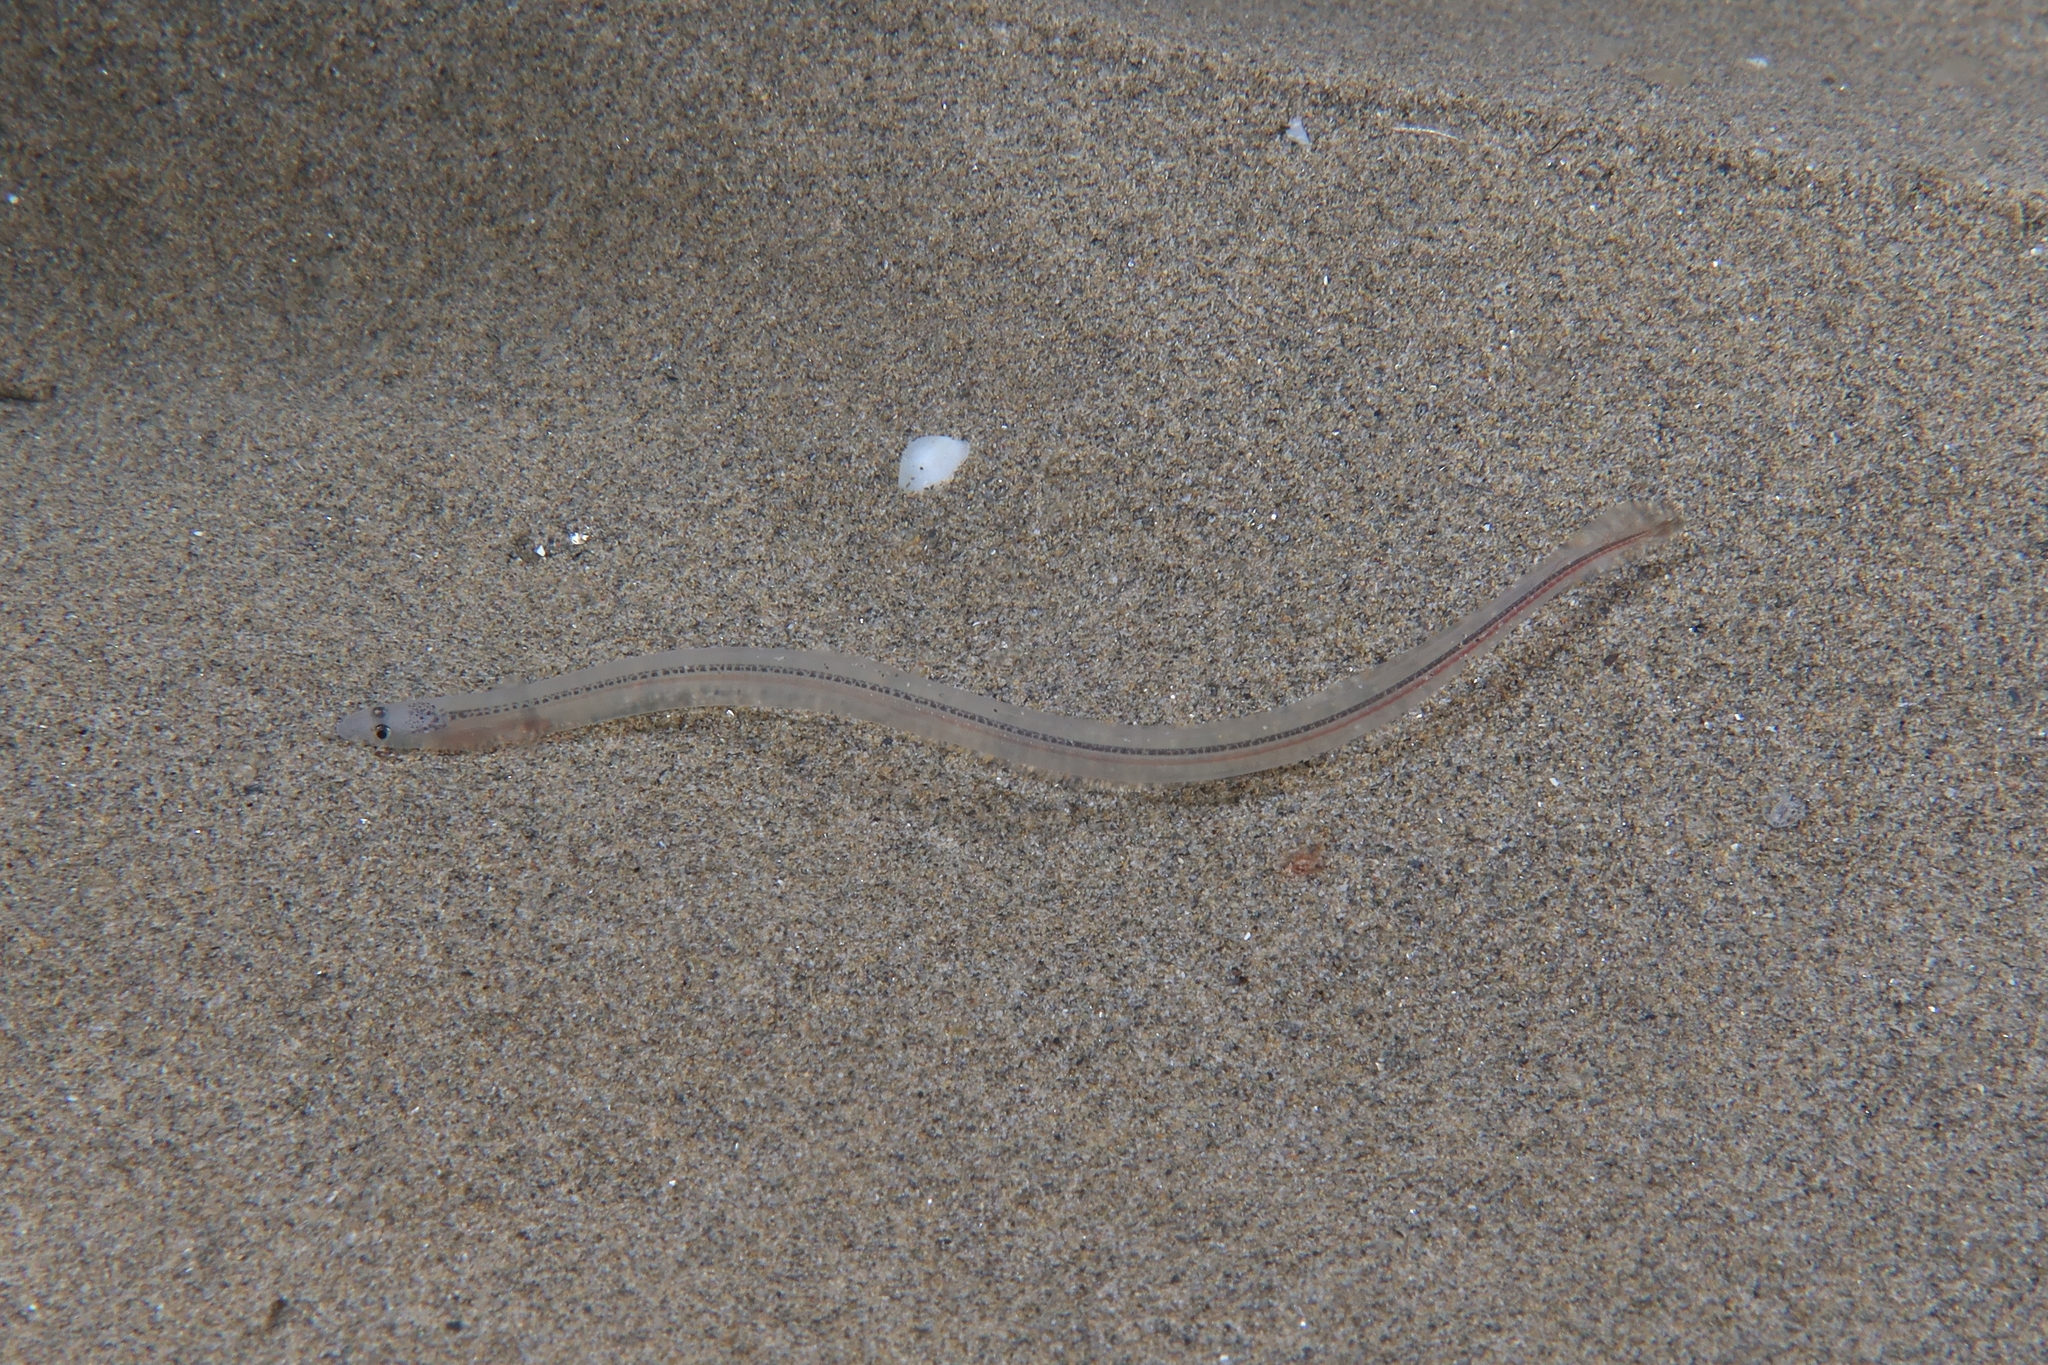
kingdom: Animalia
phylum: Chordata
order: Anguilliformes
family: Anguillidae
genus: Anguilla
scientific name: Anguilla anguilla
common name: European eel
